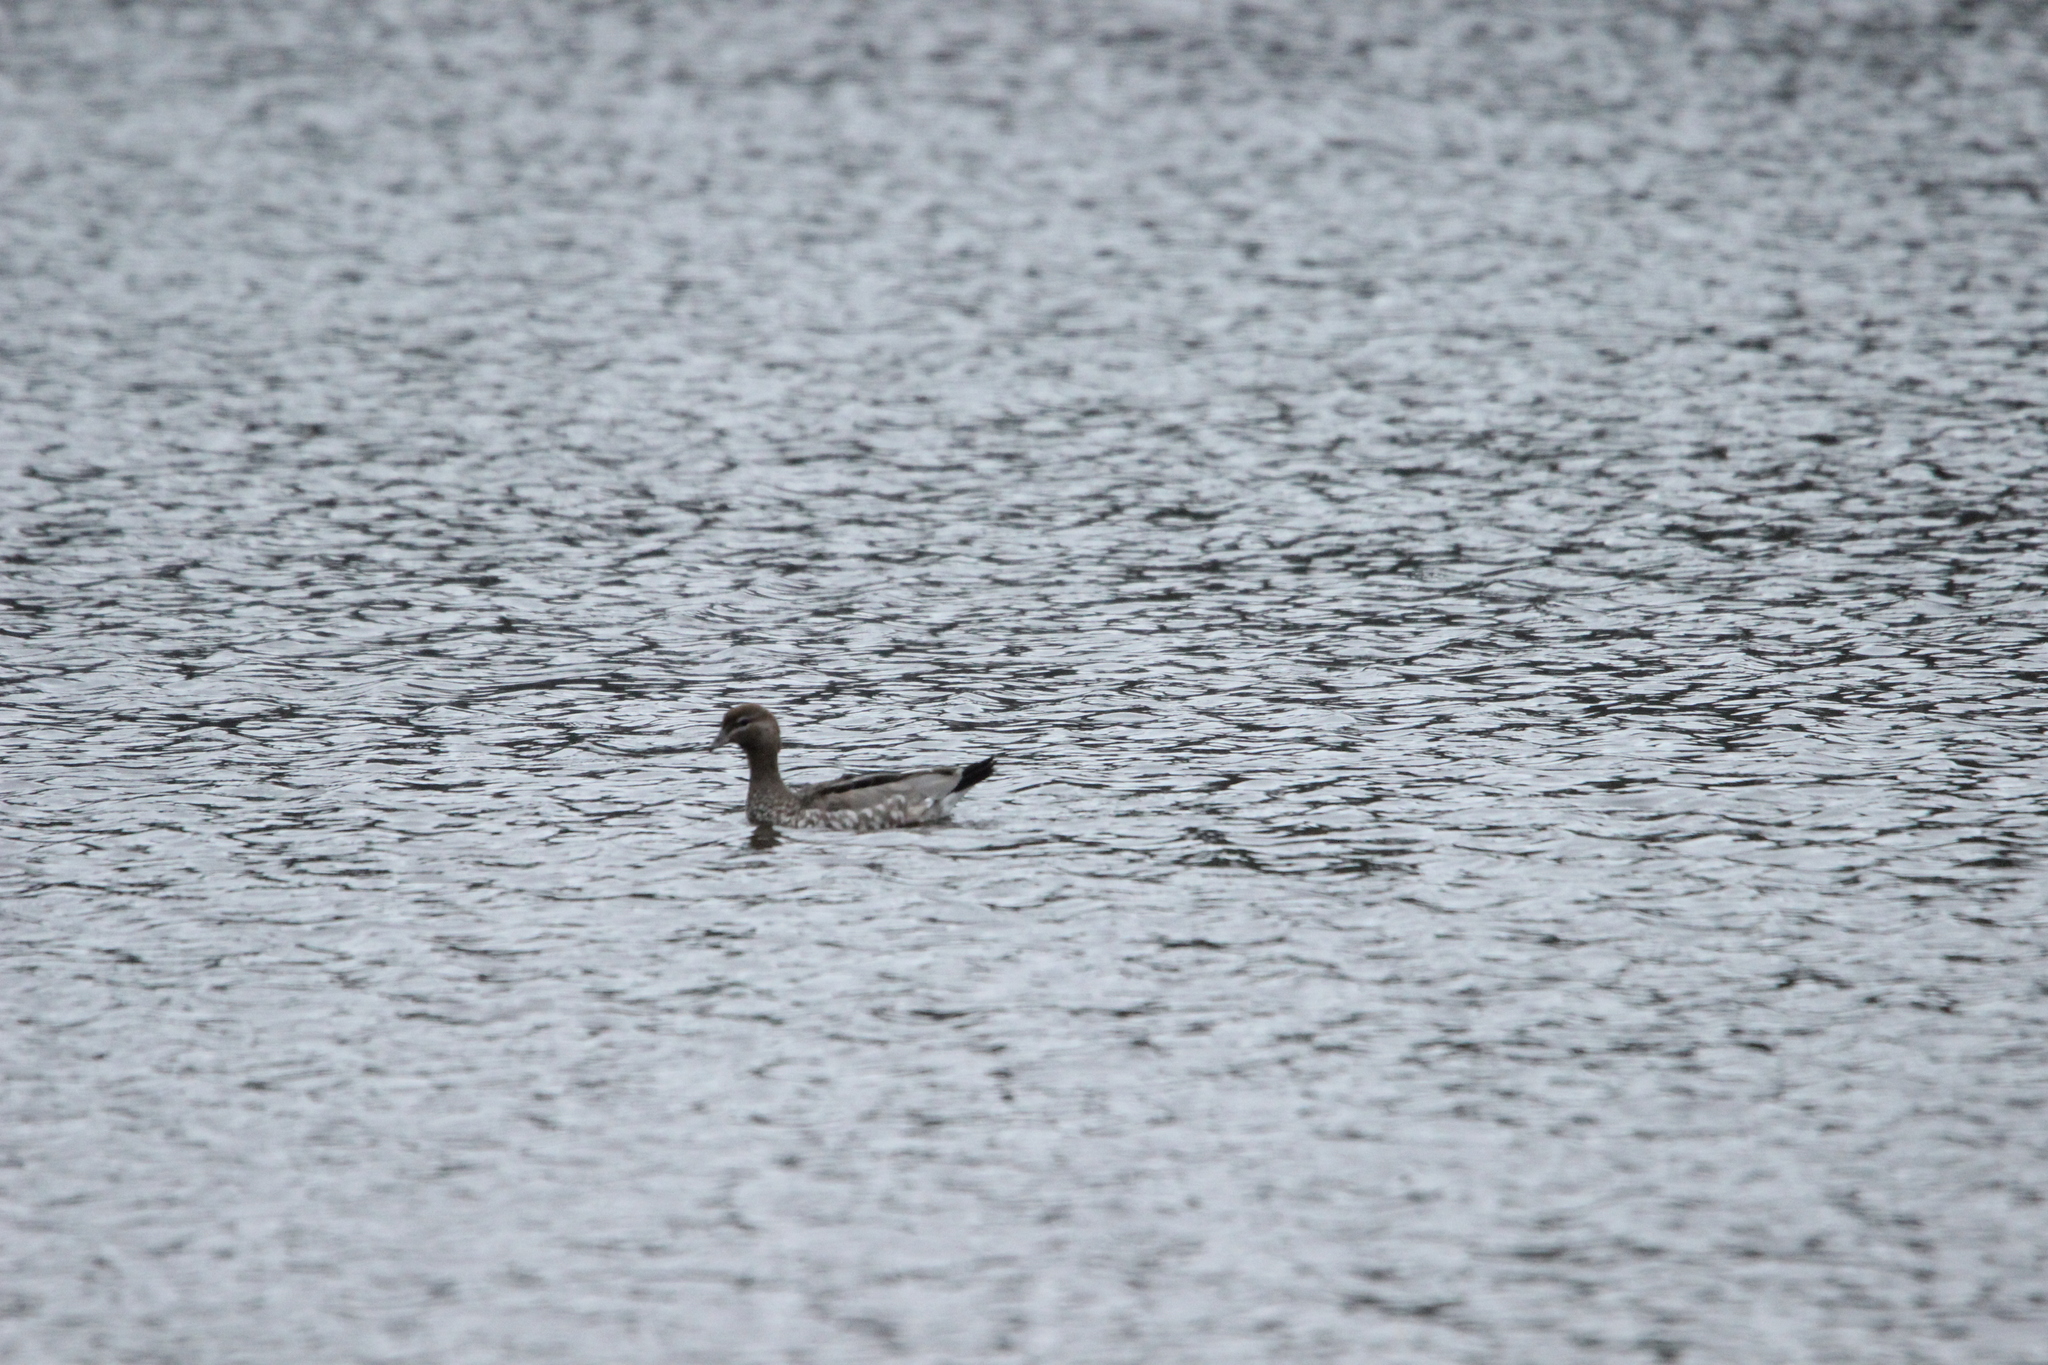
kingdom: Animalia
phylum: Chordata
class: Aves
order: Anseriformes
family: Anatidae
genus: Chenonetta
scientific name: Chenonetta jubata
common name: Maned duck
